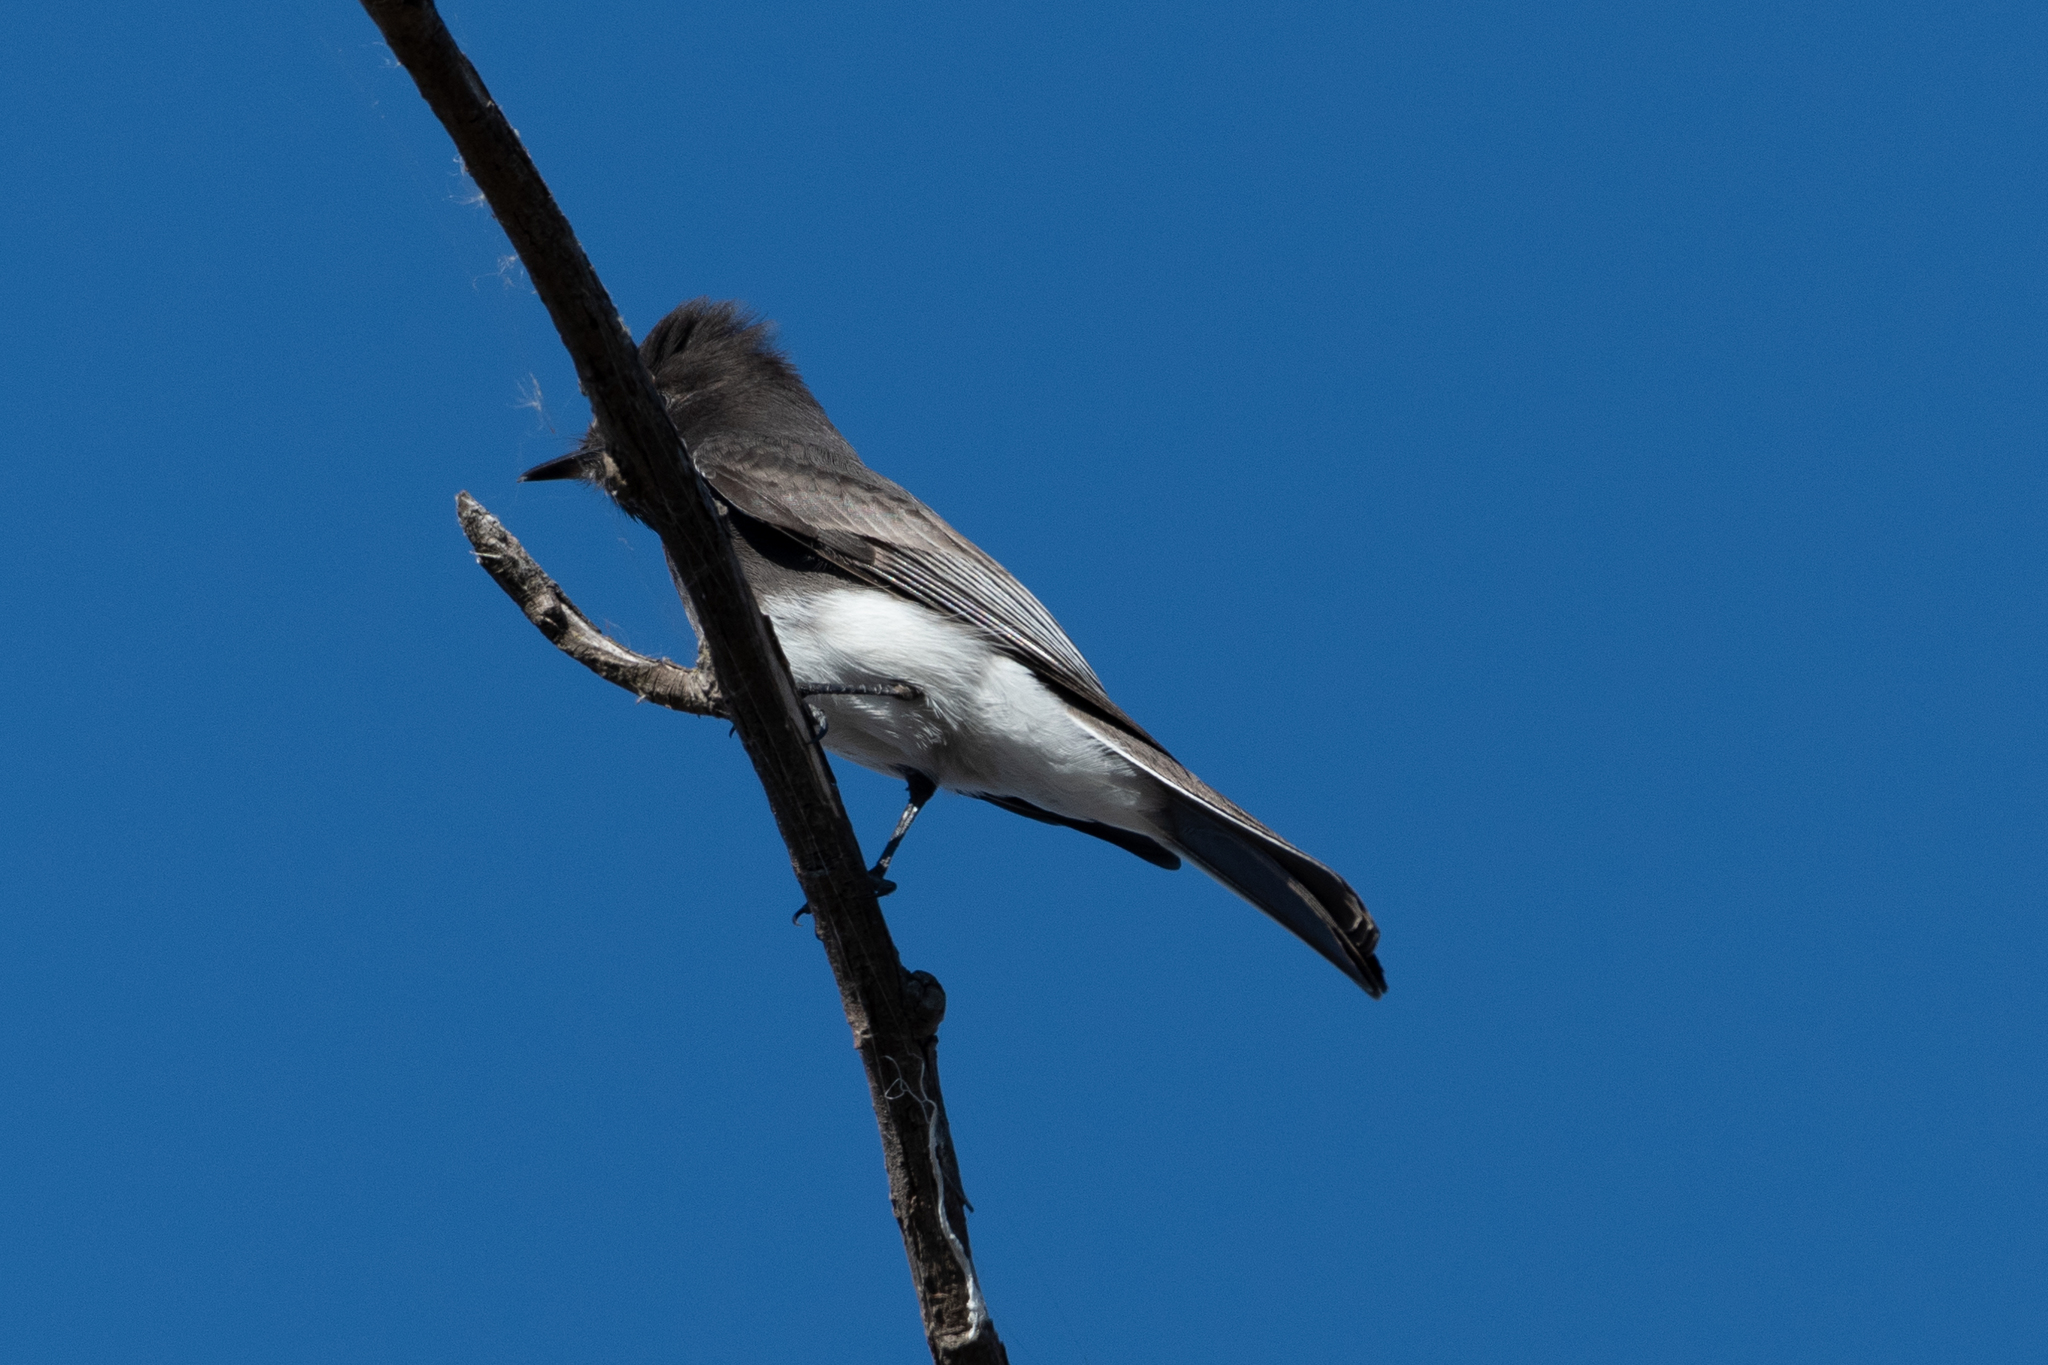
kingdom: Animalia
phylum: Chordata
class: Aves
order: Passeriformes
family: Tyrannidae
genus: Sayornis
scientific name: Sayornis nigricans
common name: Black phoebe
